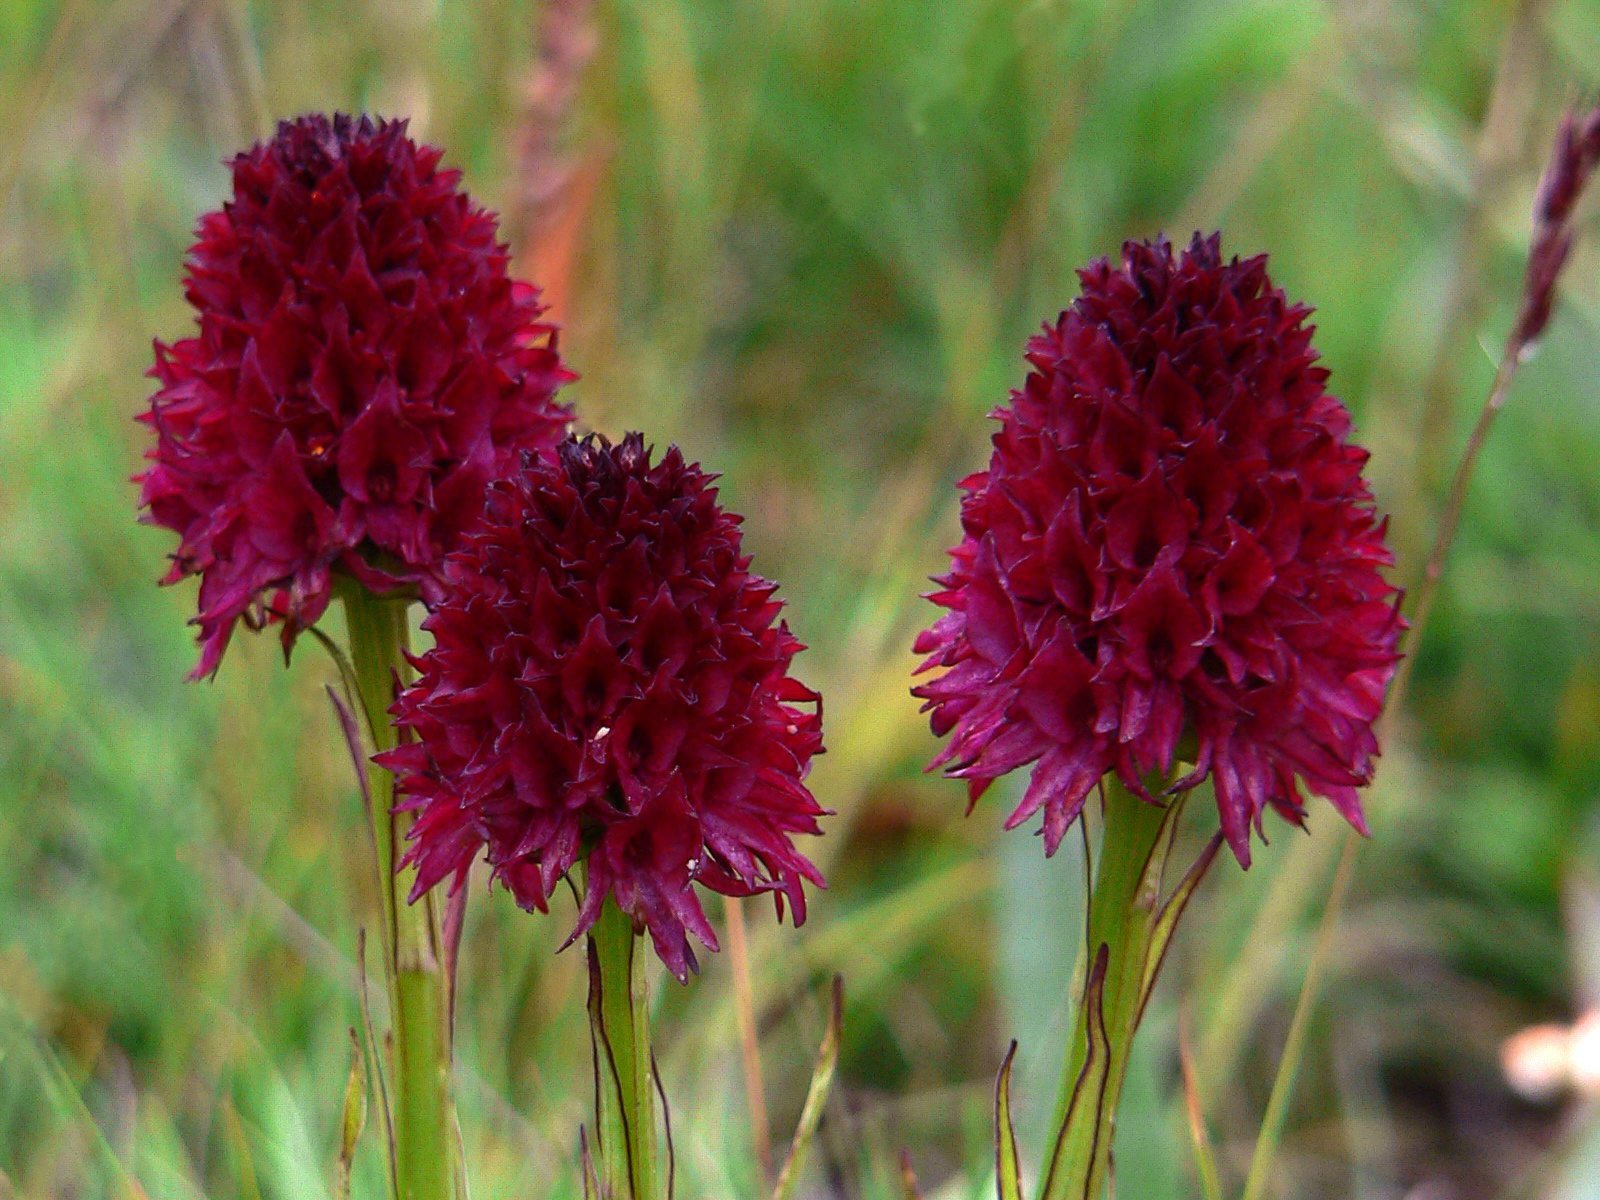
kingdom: Plantae
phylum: Tracheophyta
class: Liliopsida
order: Asparagales
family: Orchidaceae
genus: Gymnadenia
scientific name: Gymnadenia rhellicani
